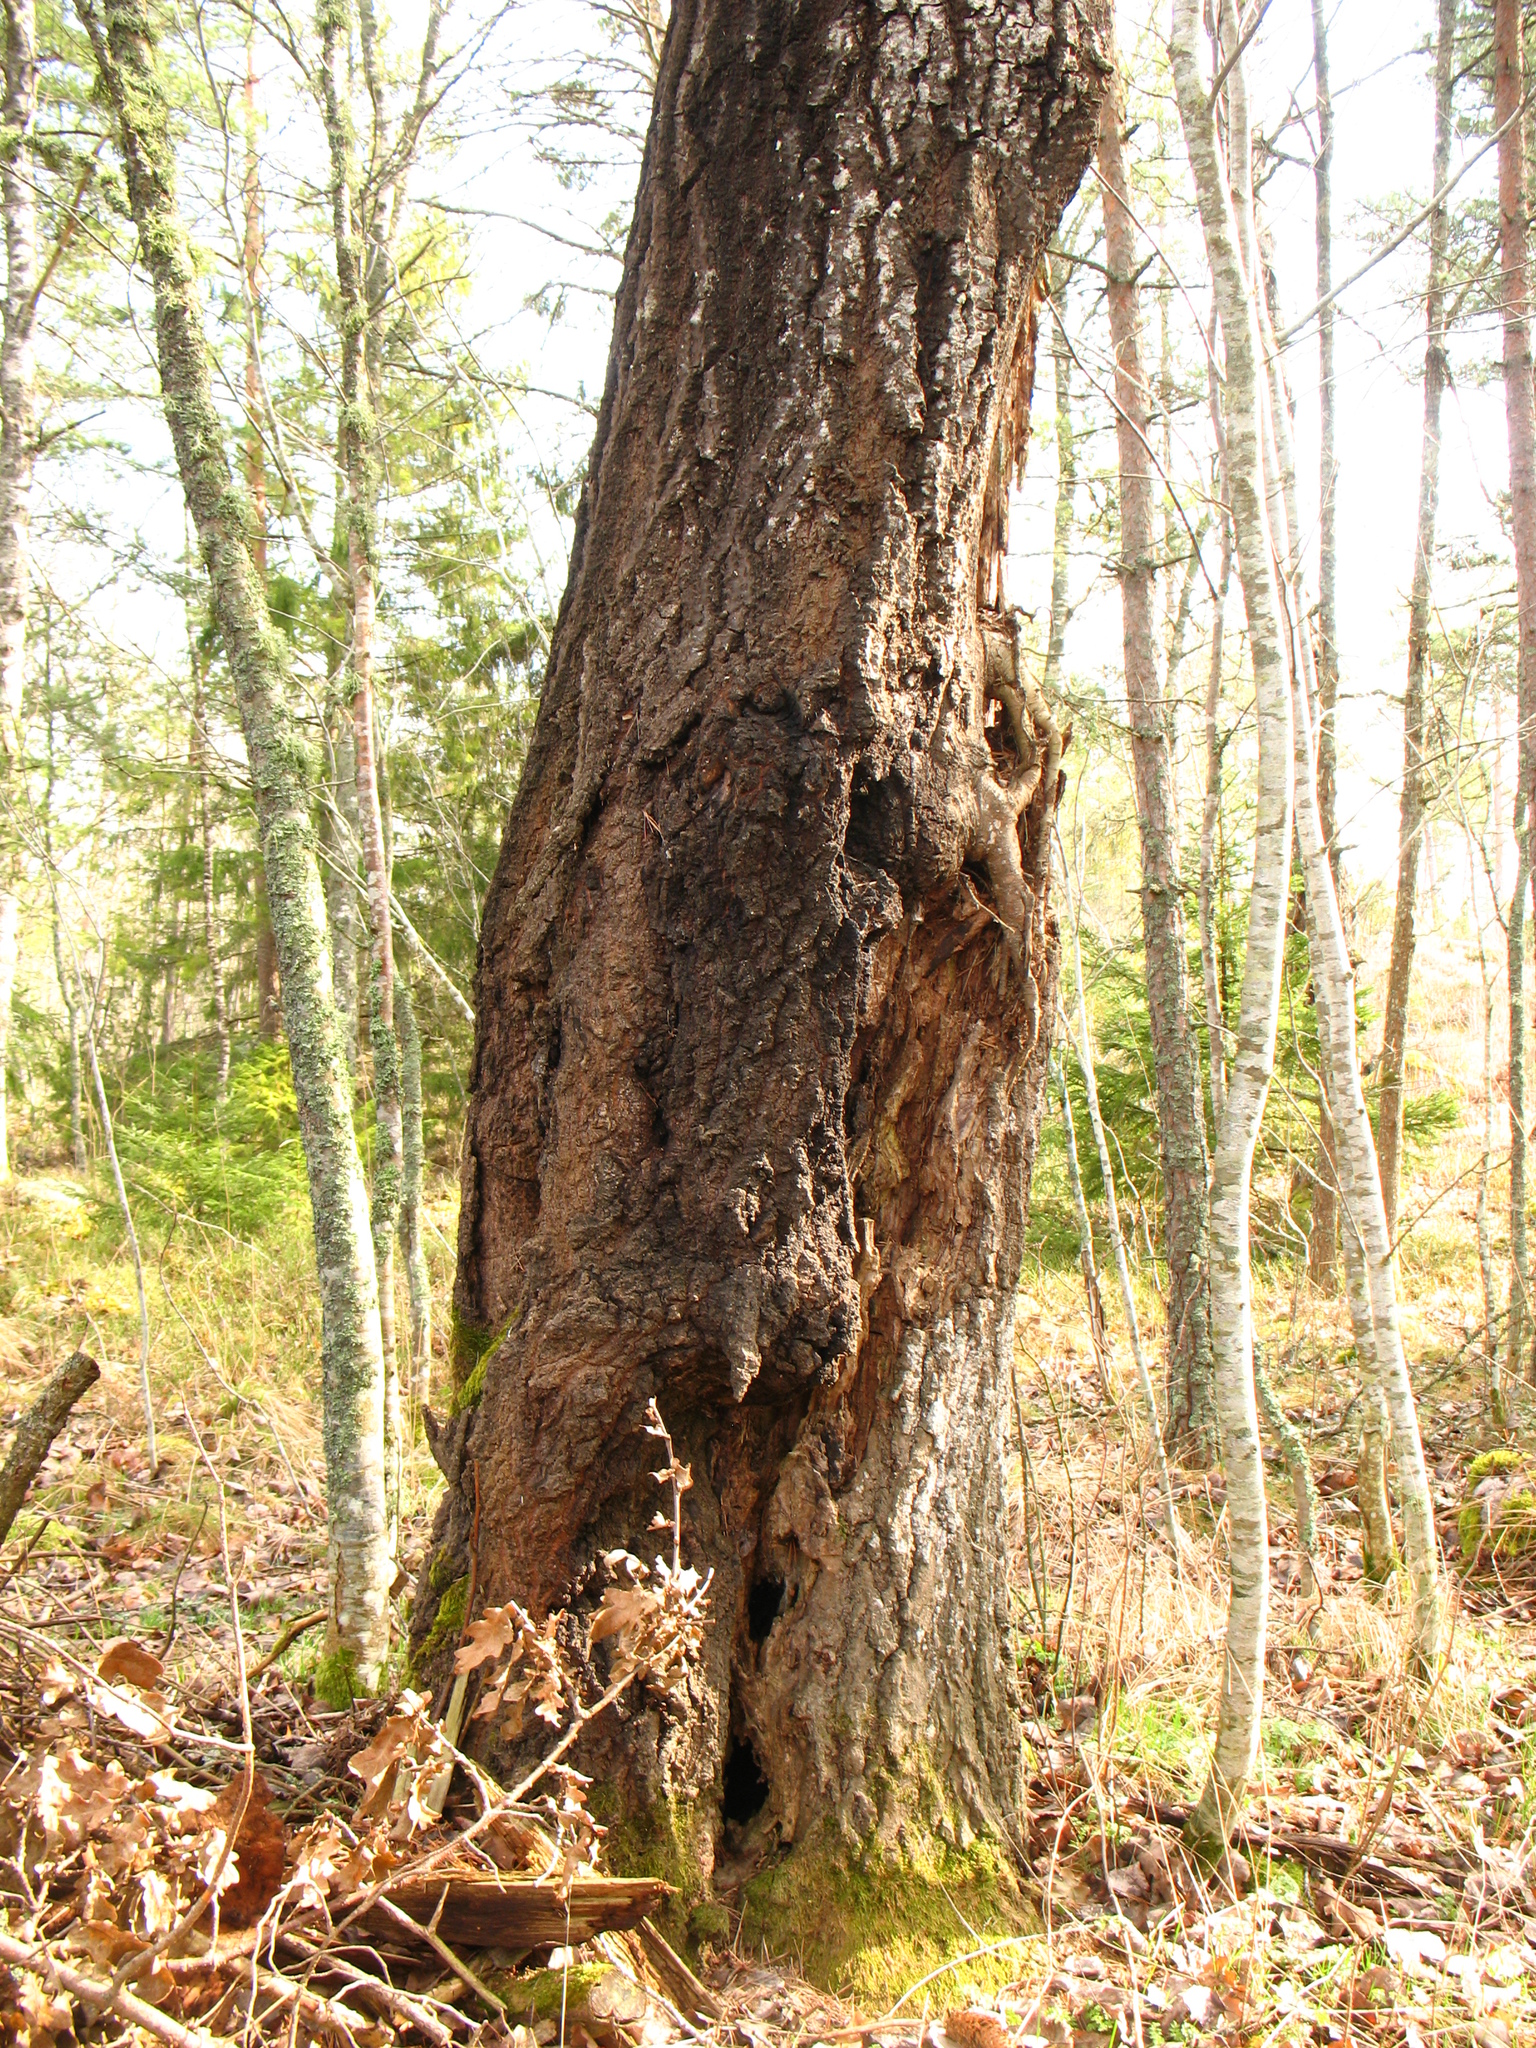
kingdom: Plantae
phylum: Tracheophyta
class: Magnoliopsida
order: Malpighiales
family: Salicaceae
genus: Populus
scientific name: Populus tremula
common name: European aspen
